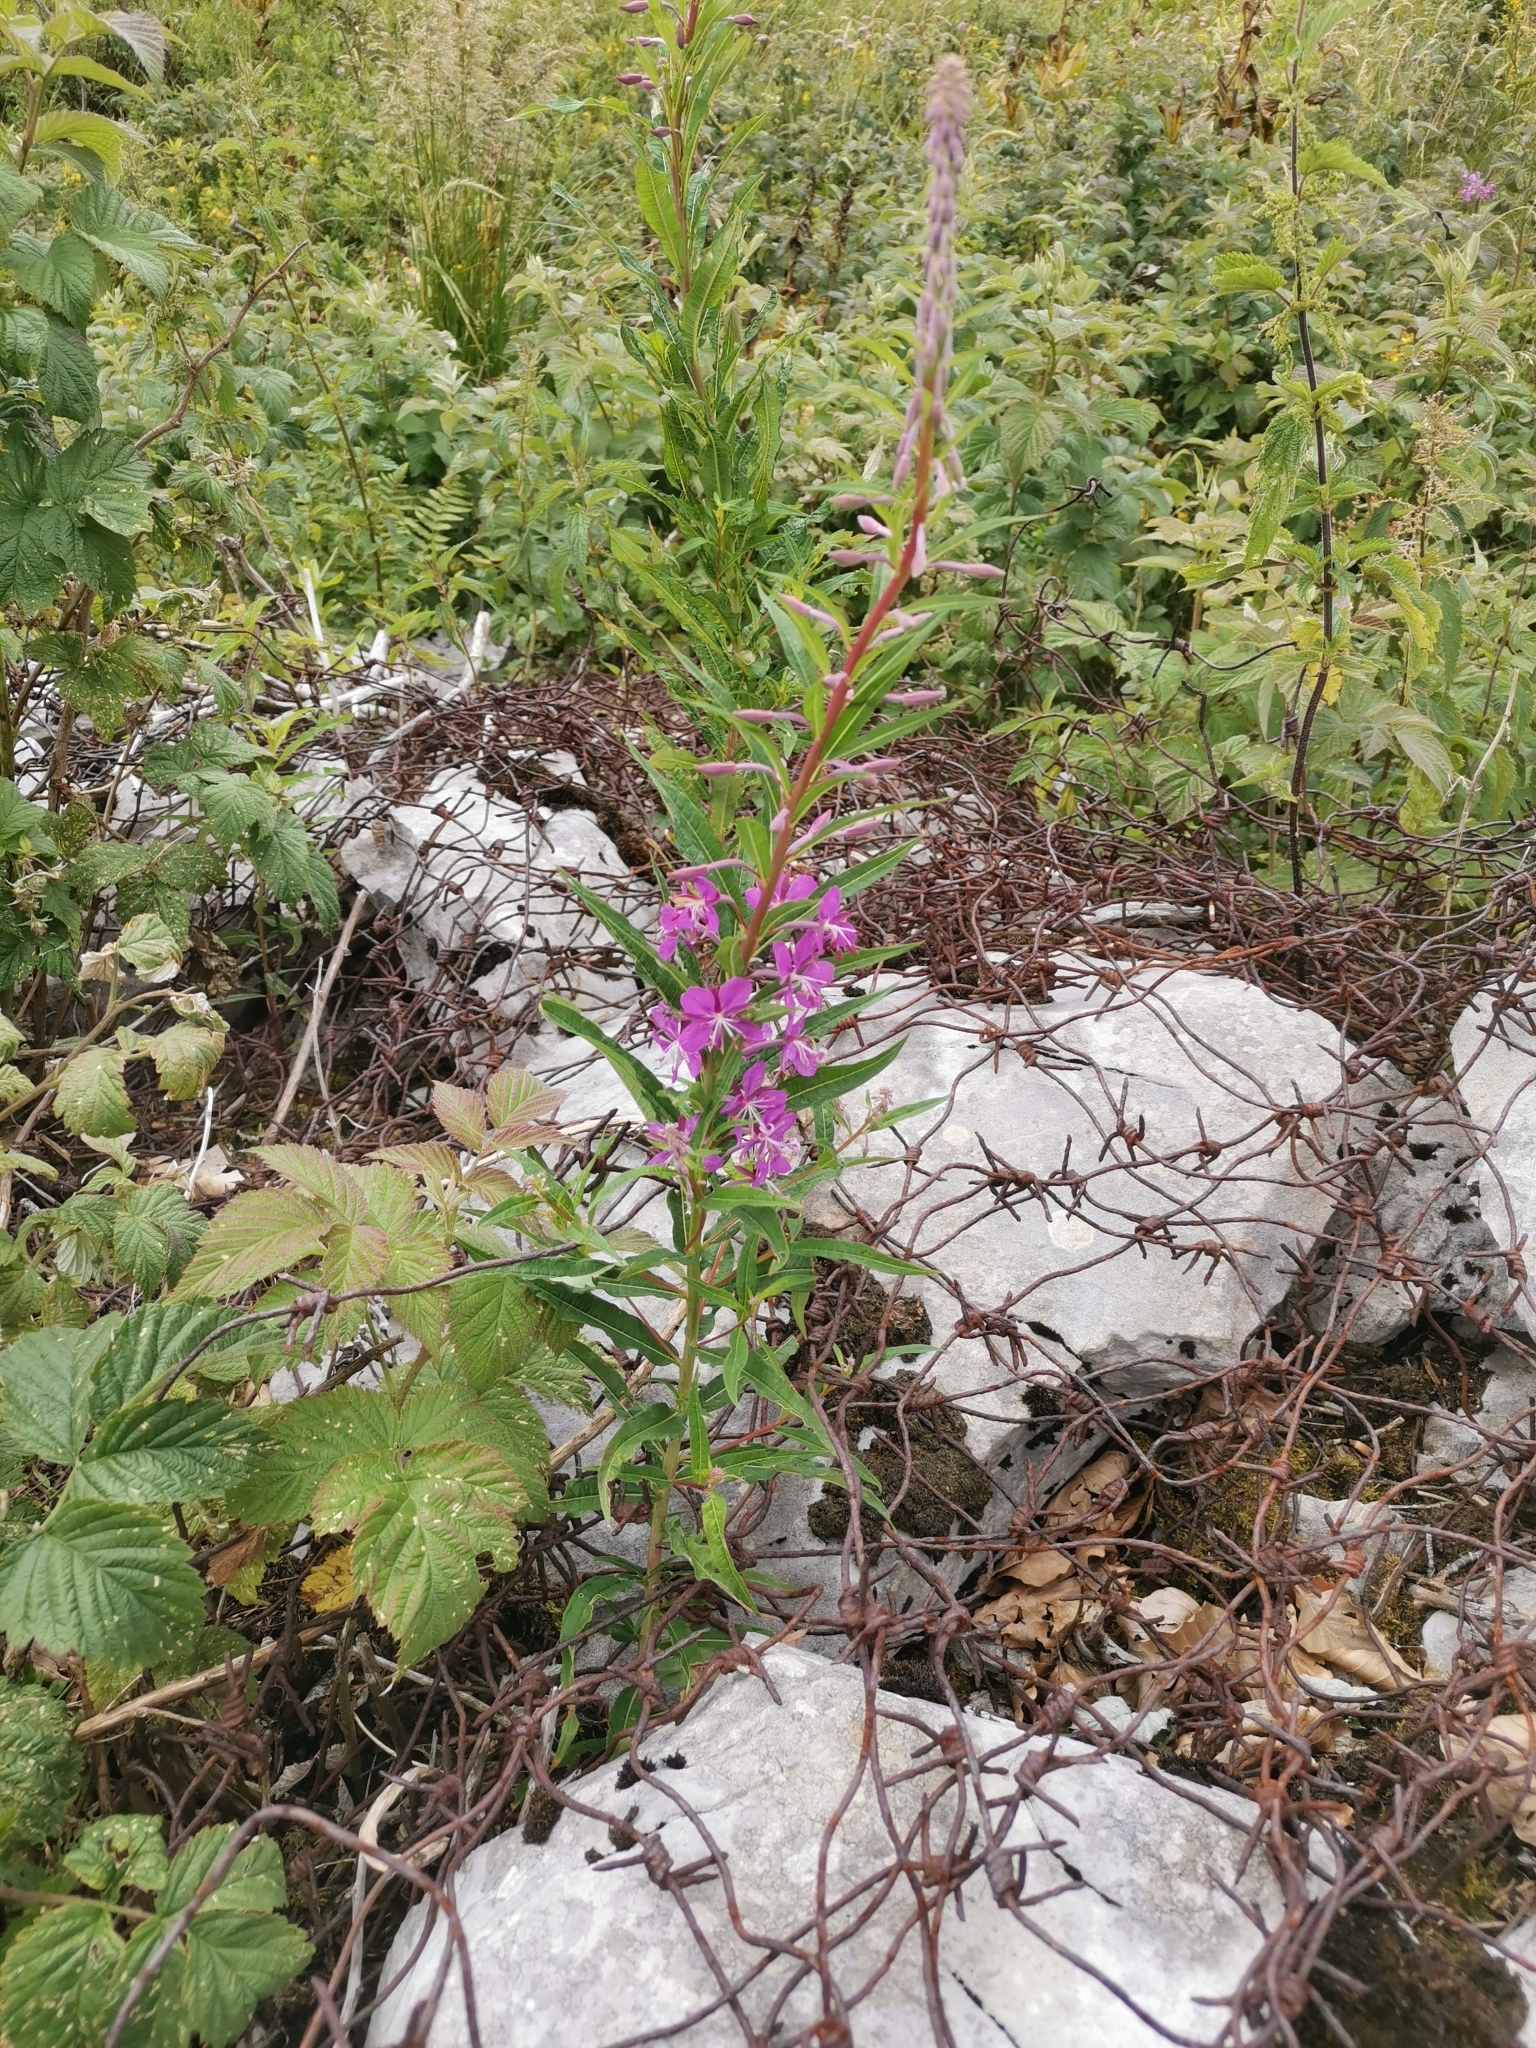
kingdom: Plantae
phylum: Tracheophyta
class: Magnoliopsida
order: Myrtales
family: Onagraceae
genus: Chamaenerion
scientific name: Chamaenerion angustifolium
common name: Fireweed
